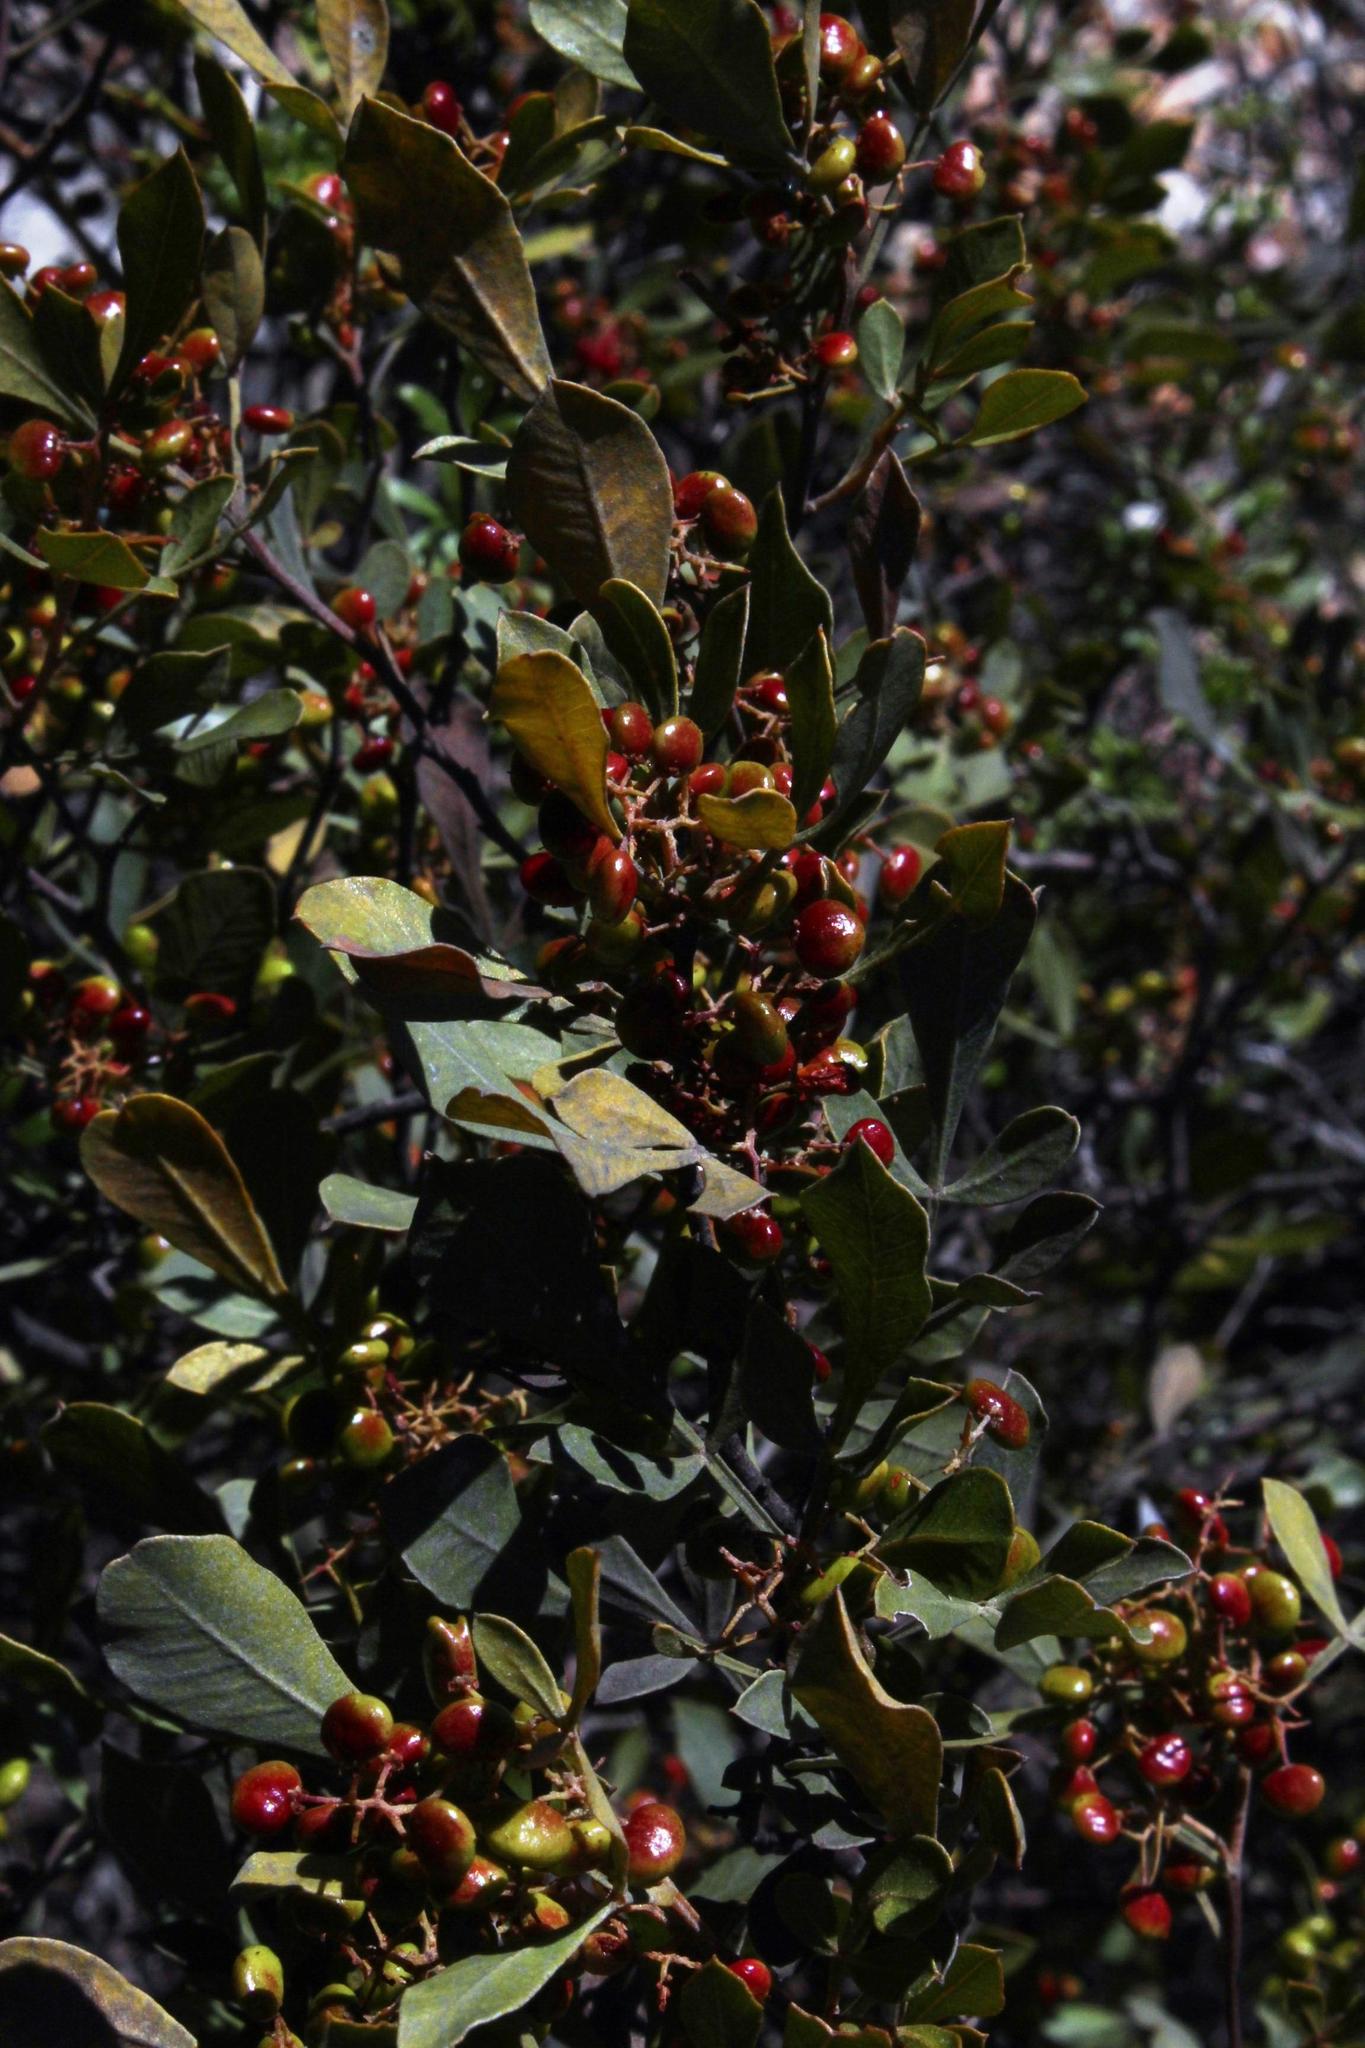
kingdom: Plantae
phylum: Tracheophyta
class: Magnoliopsida
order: Sapindales
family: Anacardiaceae
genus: Searsia
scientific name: Searsia pallens
